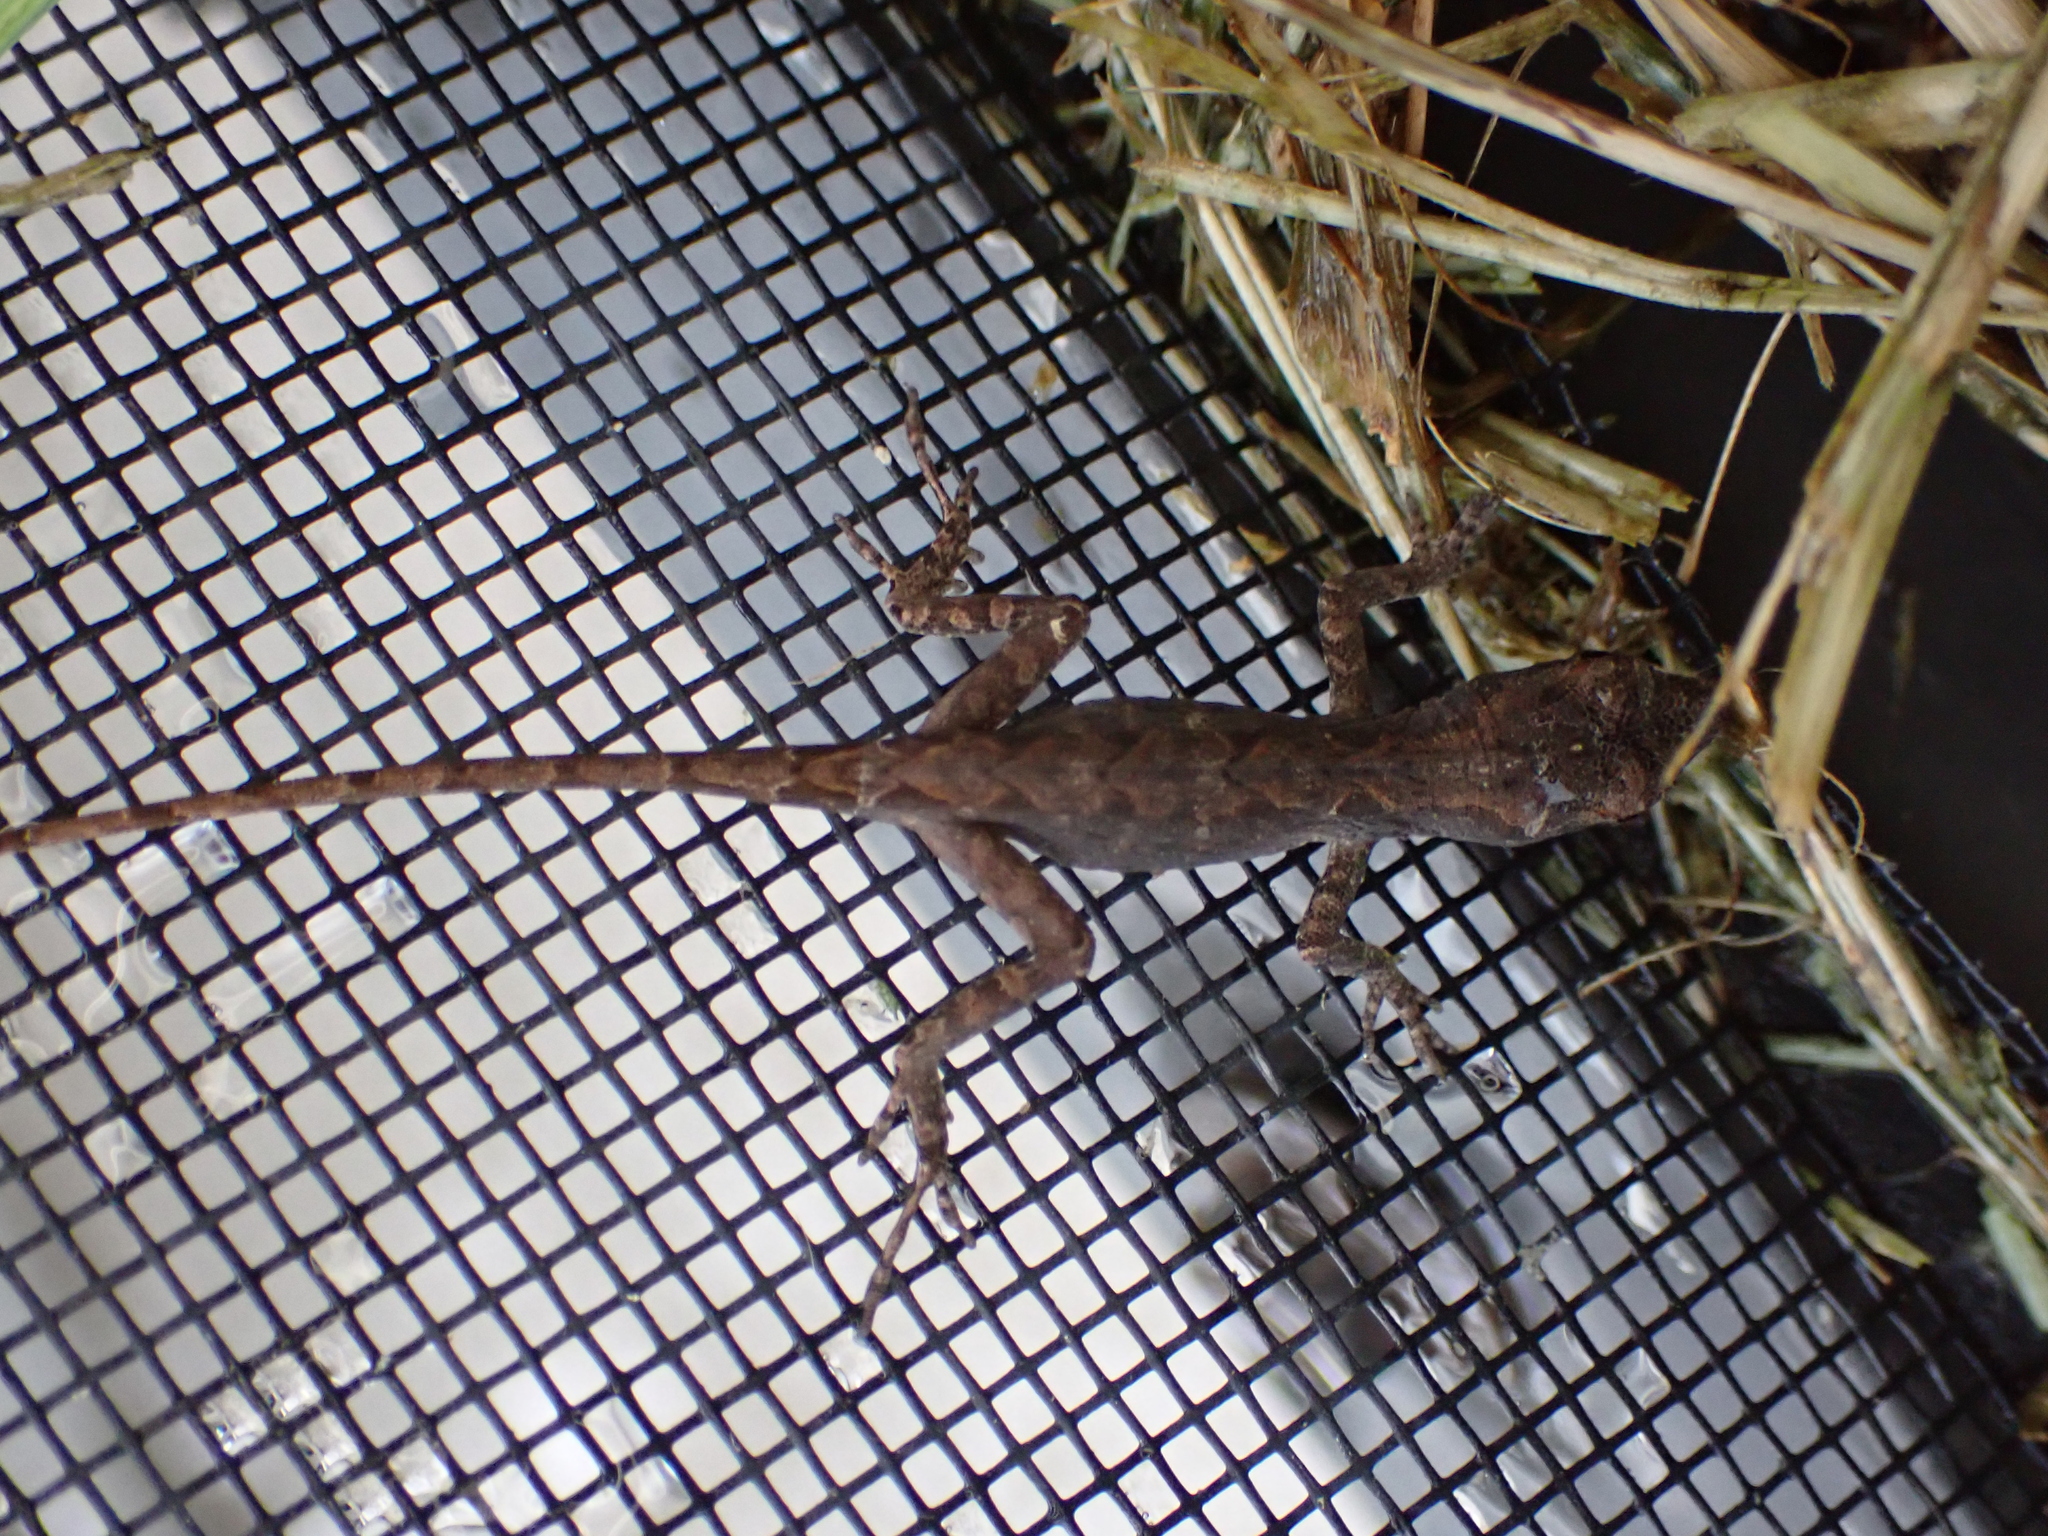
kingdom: Animalia
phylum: Chordata
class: Squamata
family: Dactyloidae
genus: Anolis
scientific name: Anolis sagrei
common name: Brown anole
